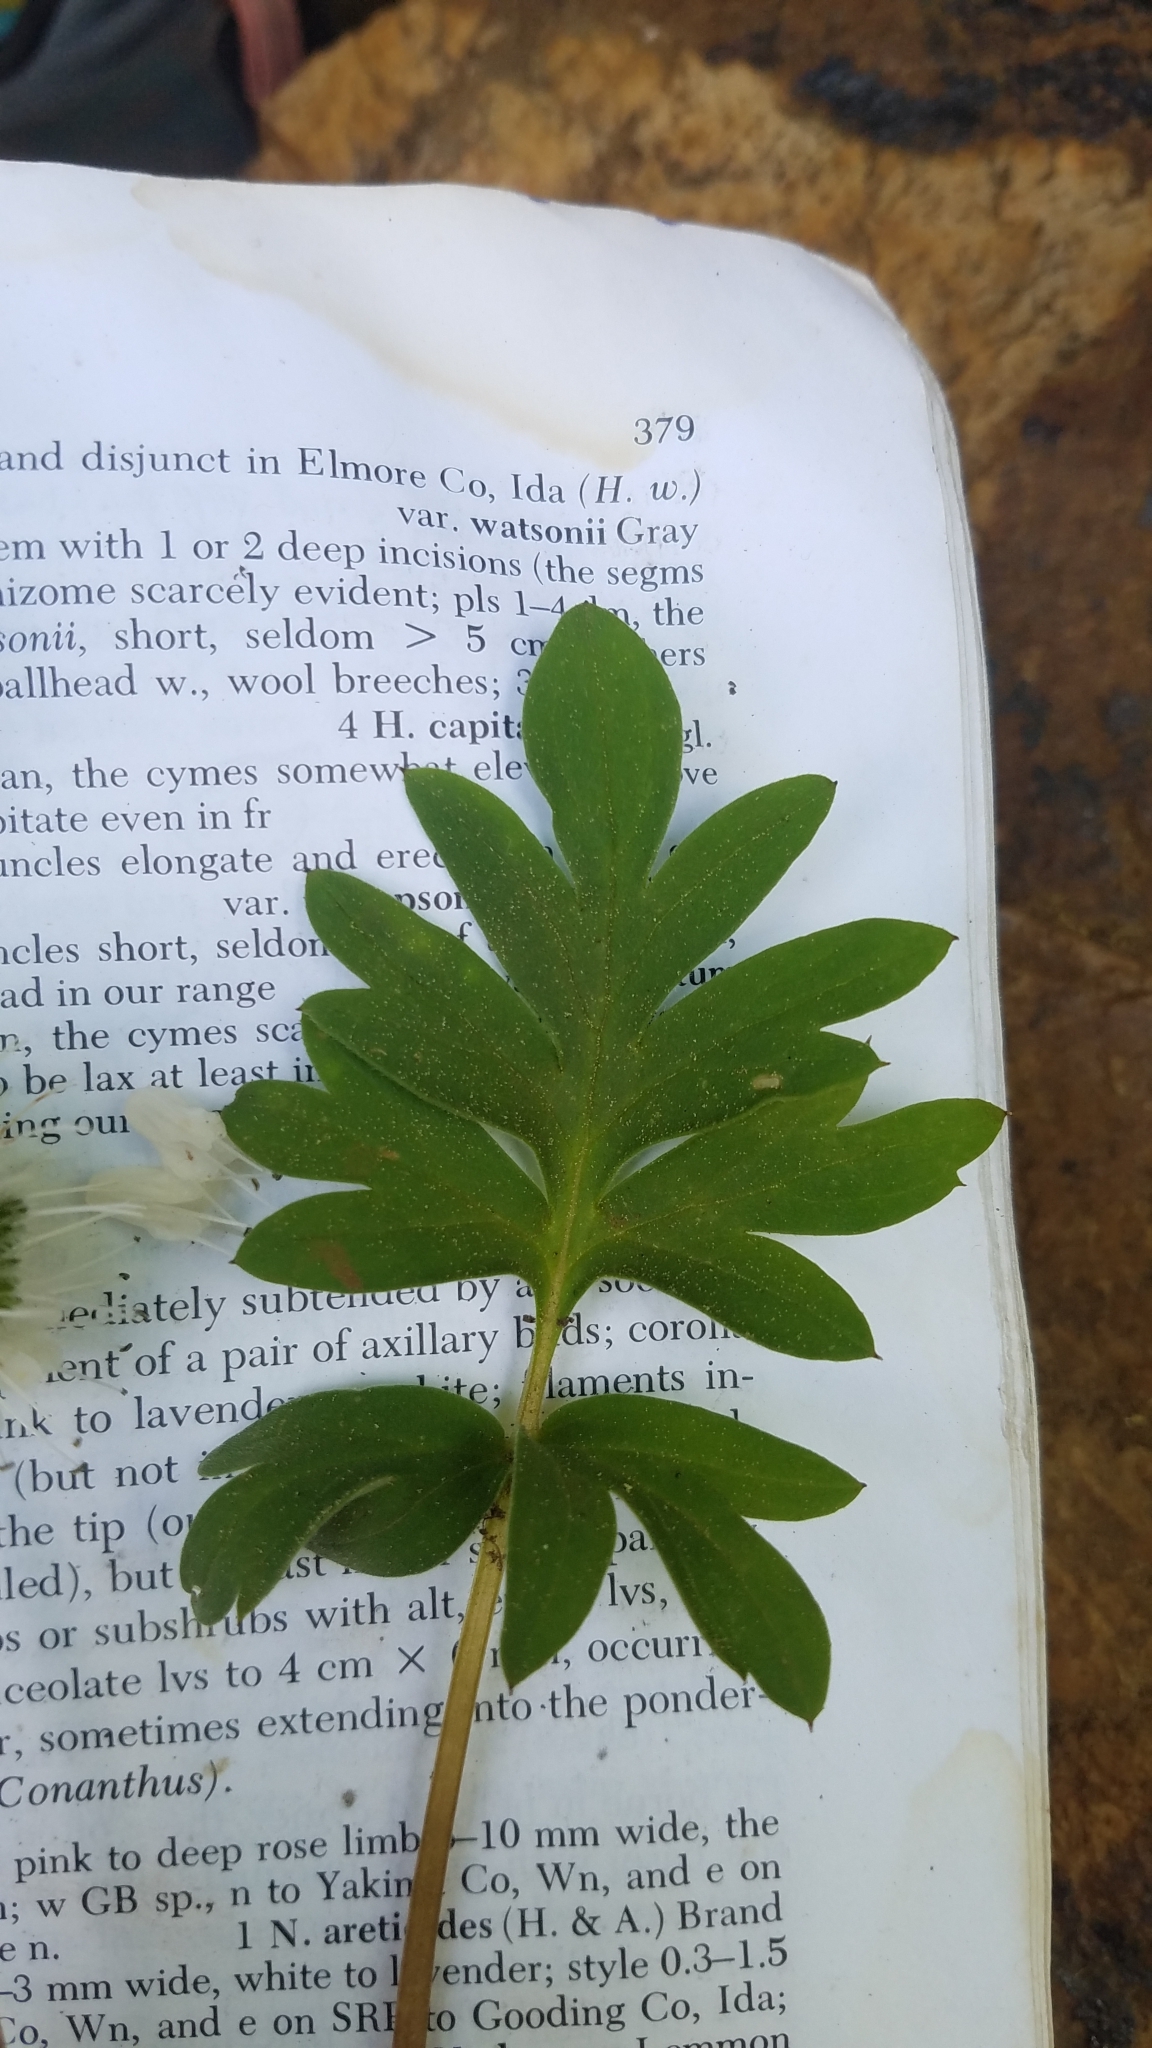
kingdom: Plantae
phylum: Tracheophyta
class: Magnoliopsida
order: Boraginales
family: Hydrophyllaceae
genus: Hydrophyllum
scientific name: Hydrophyllum capitatum
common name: Woollen-breeches
